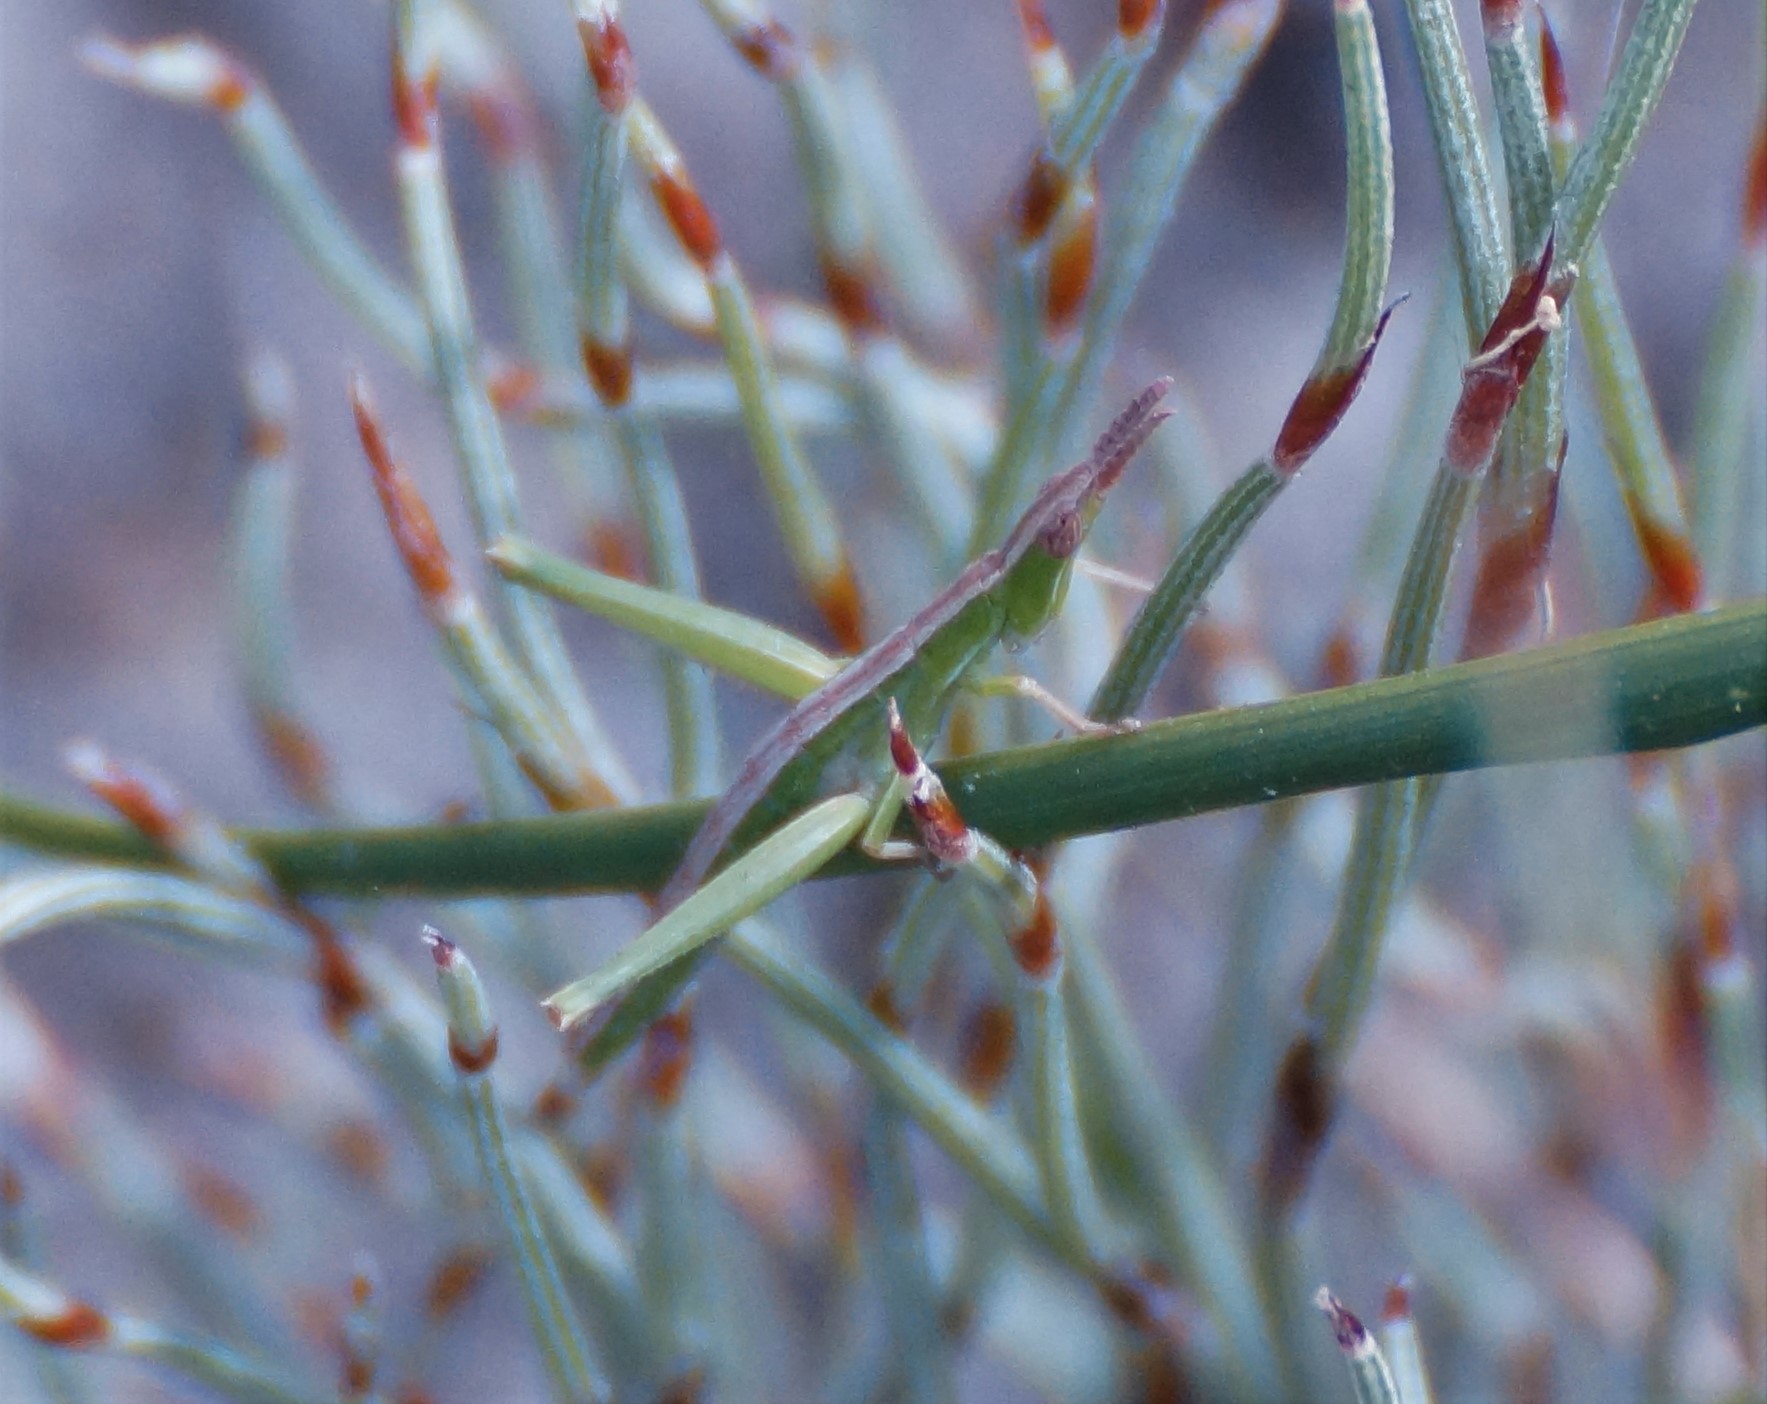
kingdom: Animalia
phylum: Arthropoda
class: Insecta
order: Orthoptera
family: Morabidae
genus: Vandiemenella
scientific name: Vandiemenella viatica
